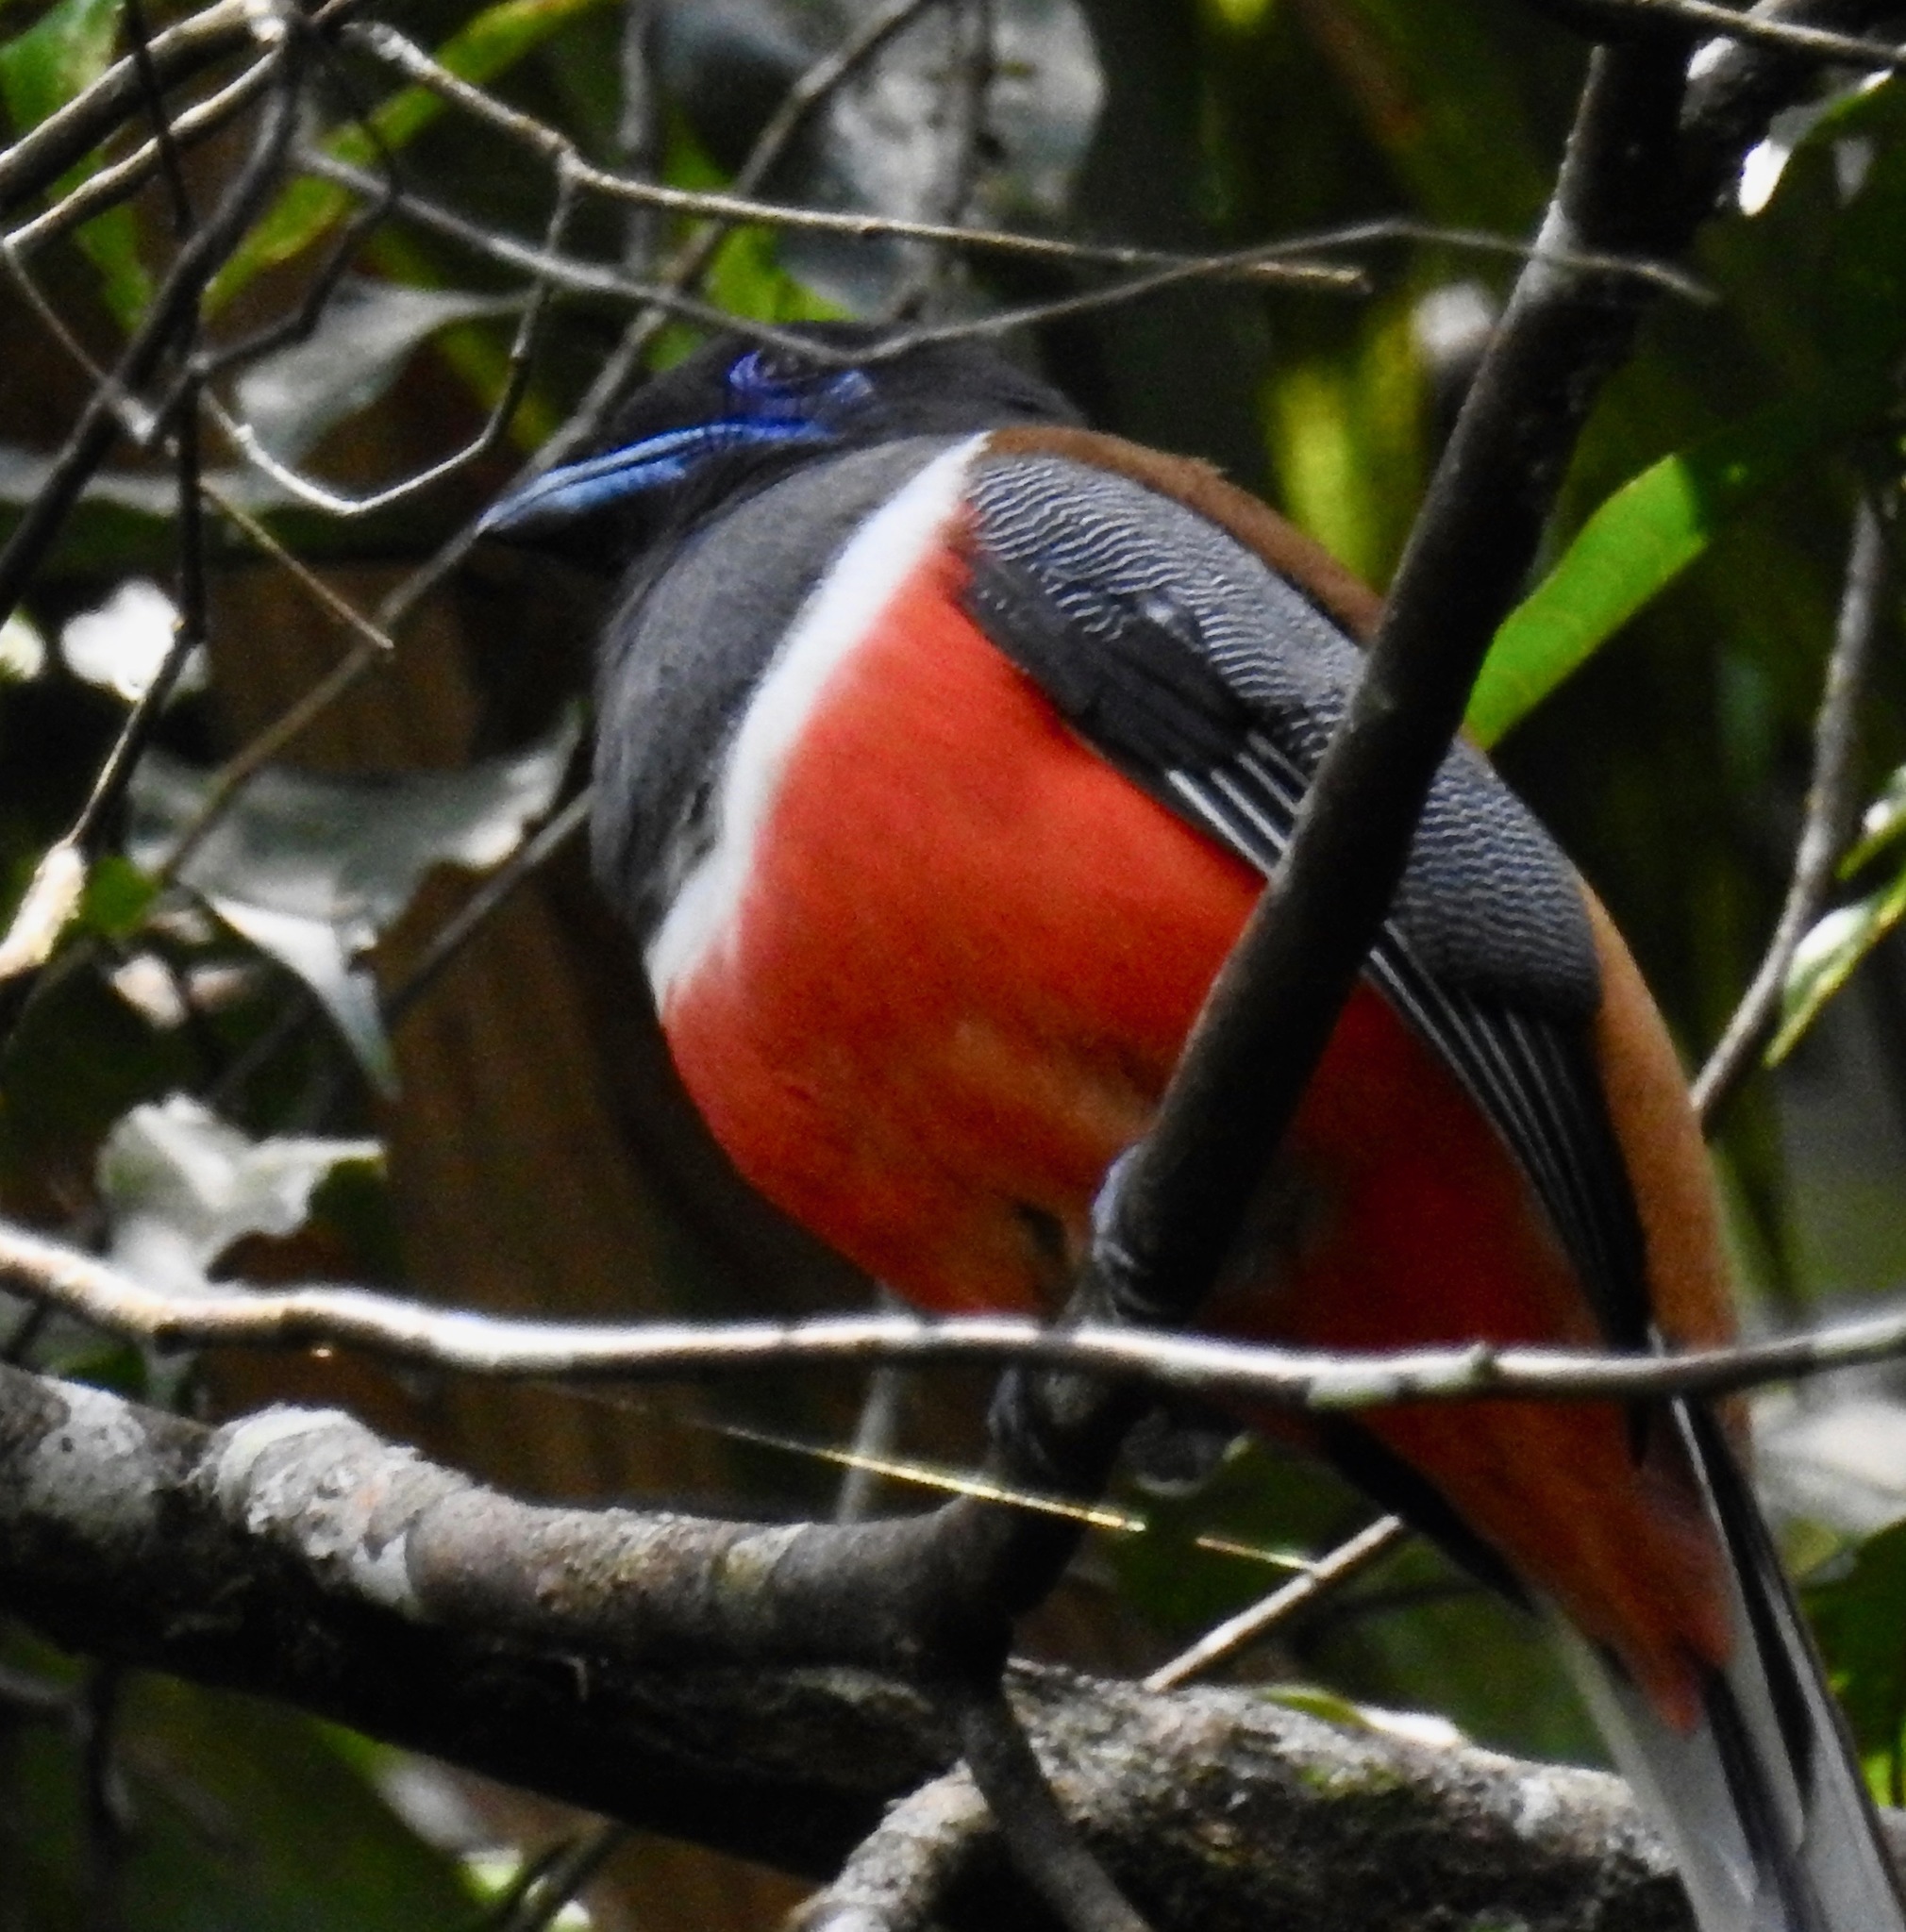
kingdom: Animalia
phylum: Chordata
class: Aves
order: Trogoniformes
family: Trogonidae
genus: Harpactes
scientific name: Harpactes fasciatus
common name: Malabar trogon
